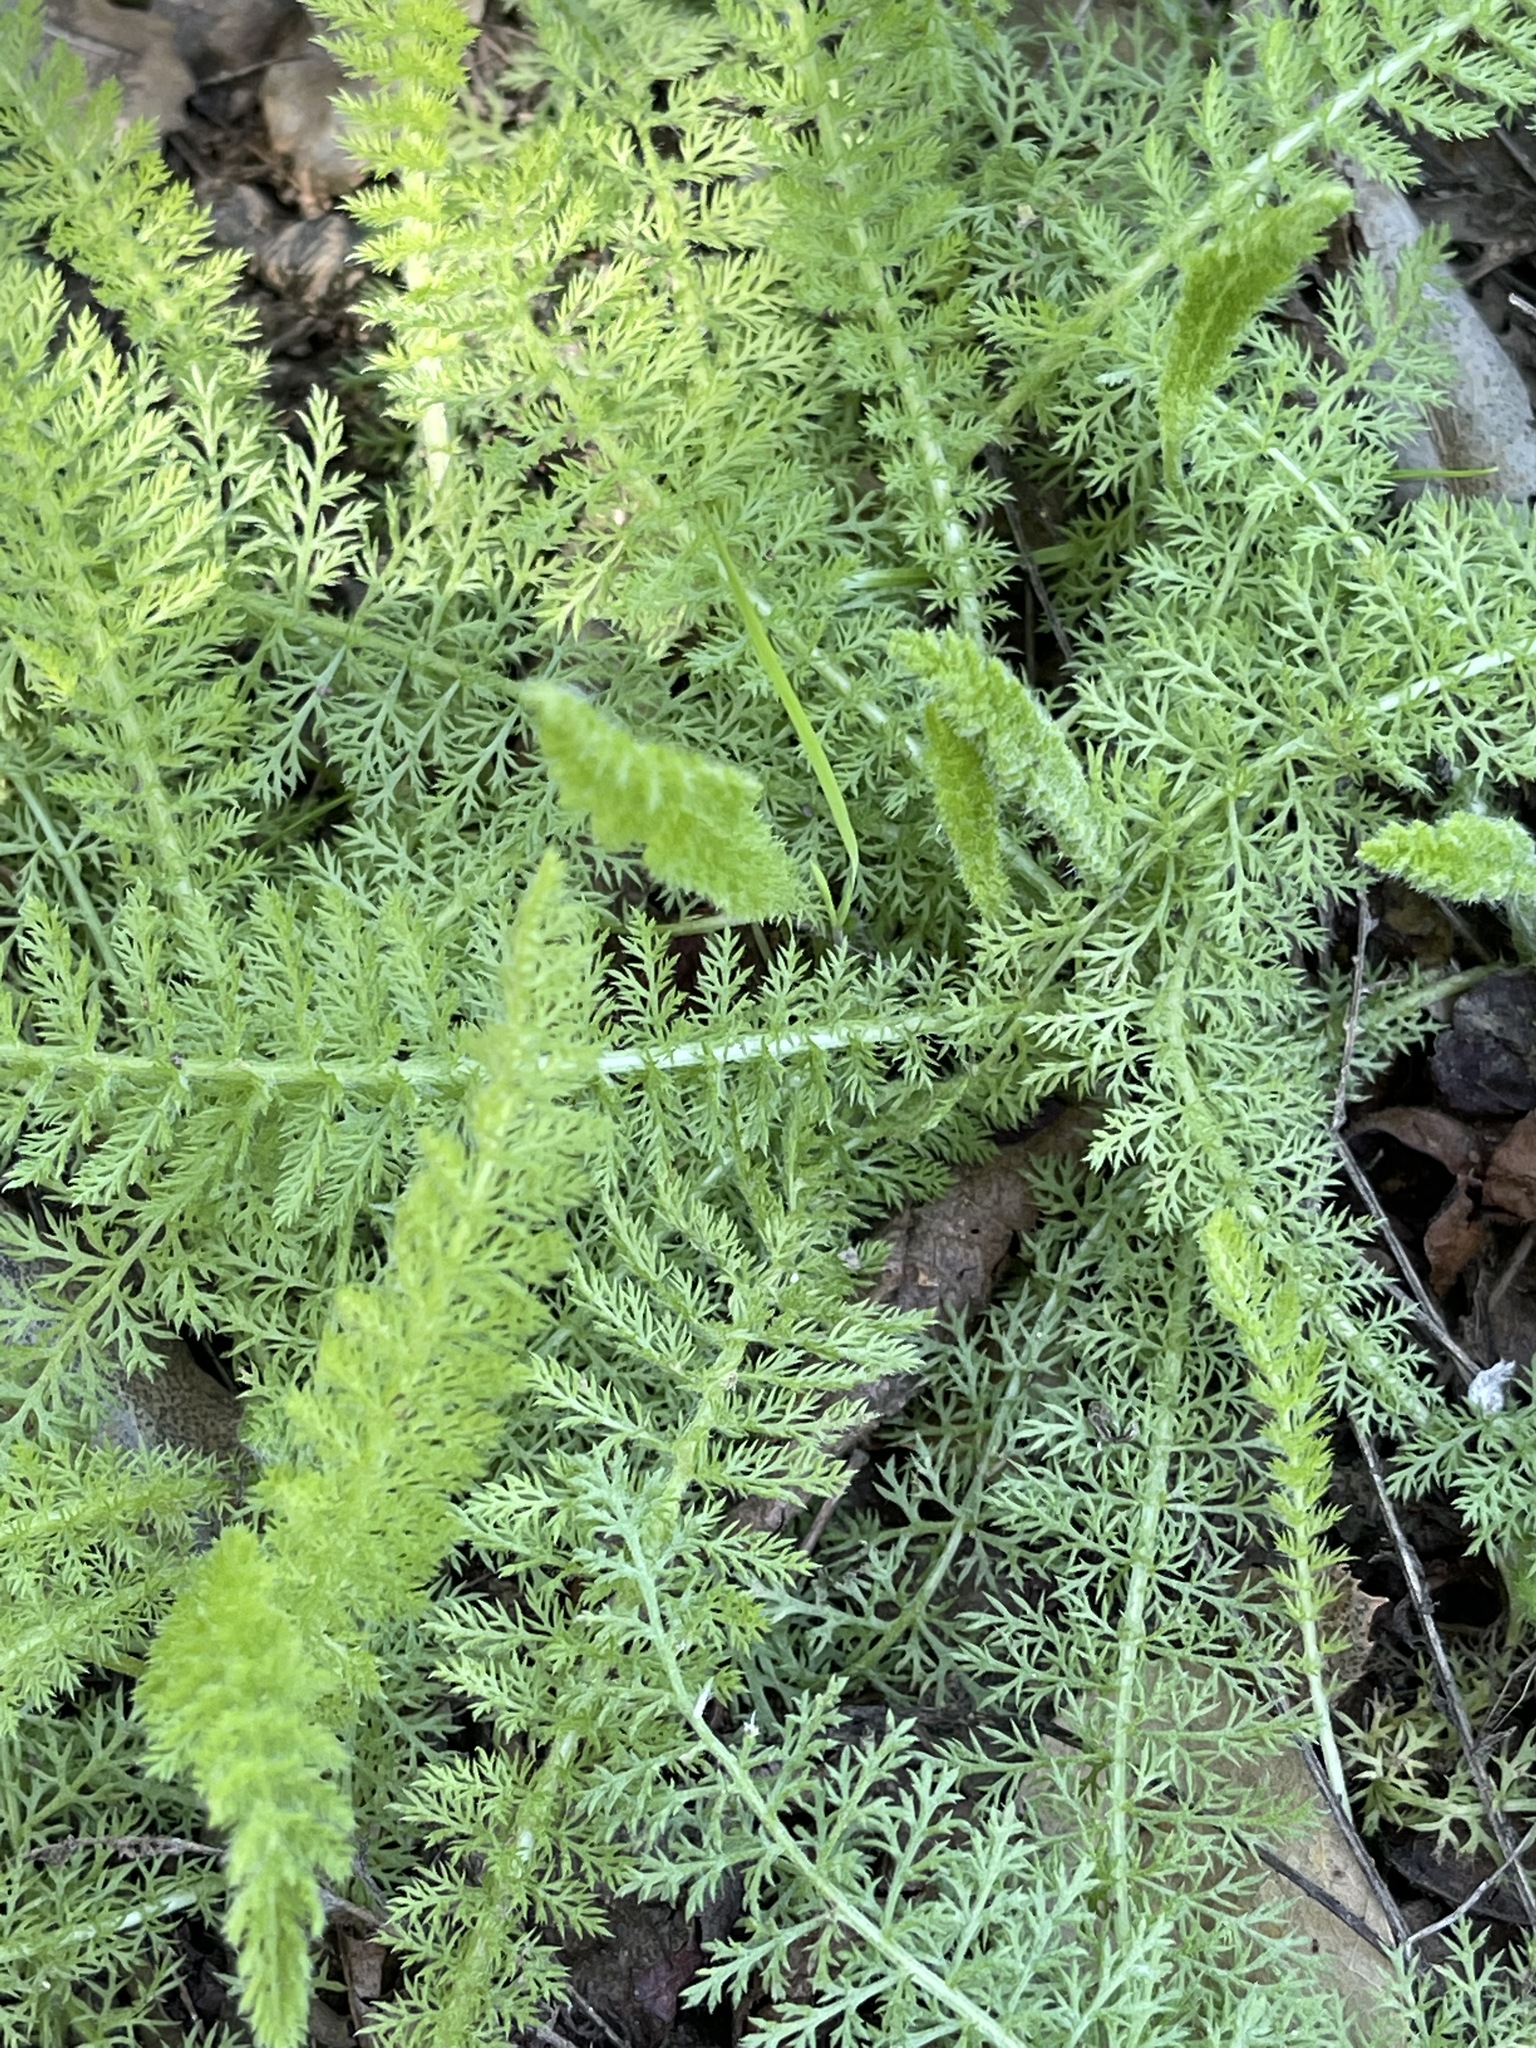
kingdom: Plantae
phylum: Tracheophyta
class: Magnoliopsida
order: Asterales
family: Asteraceae
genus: Achillea
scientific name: Achillea millefolium
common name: Yarrow
